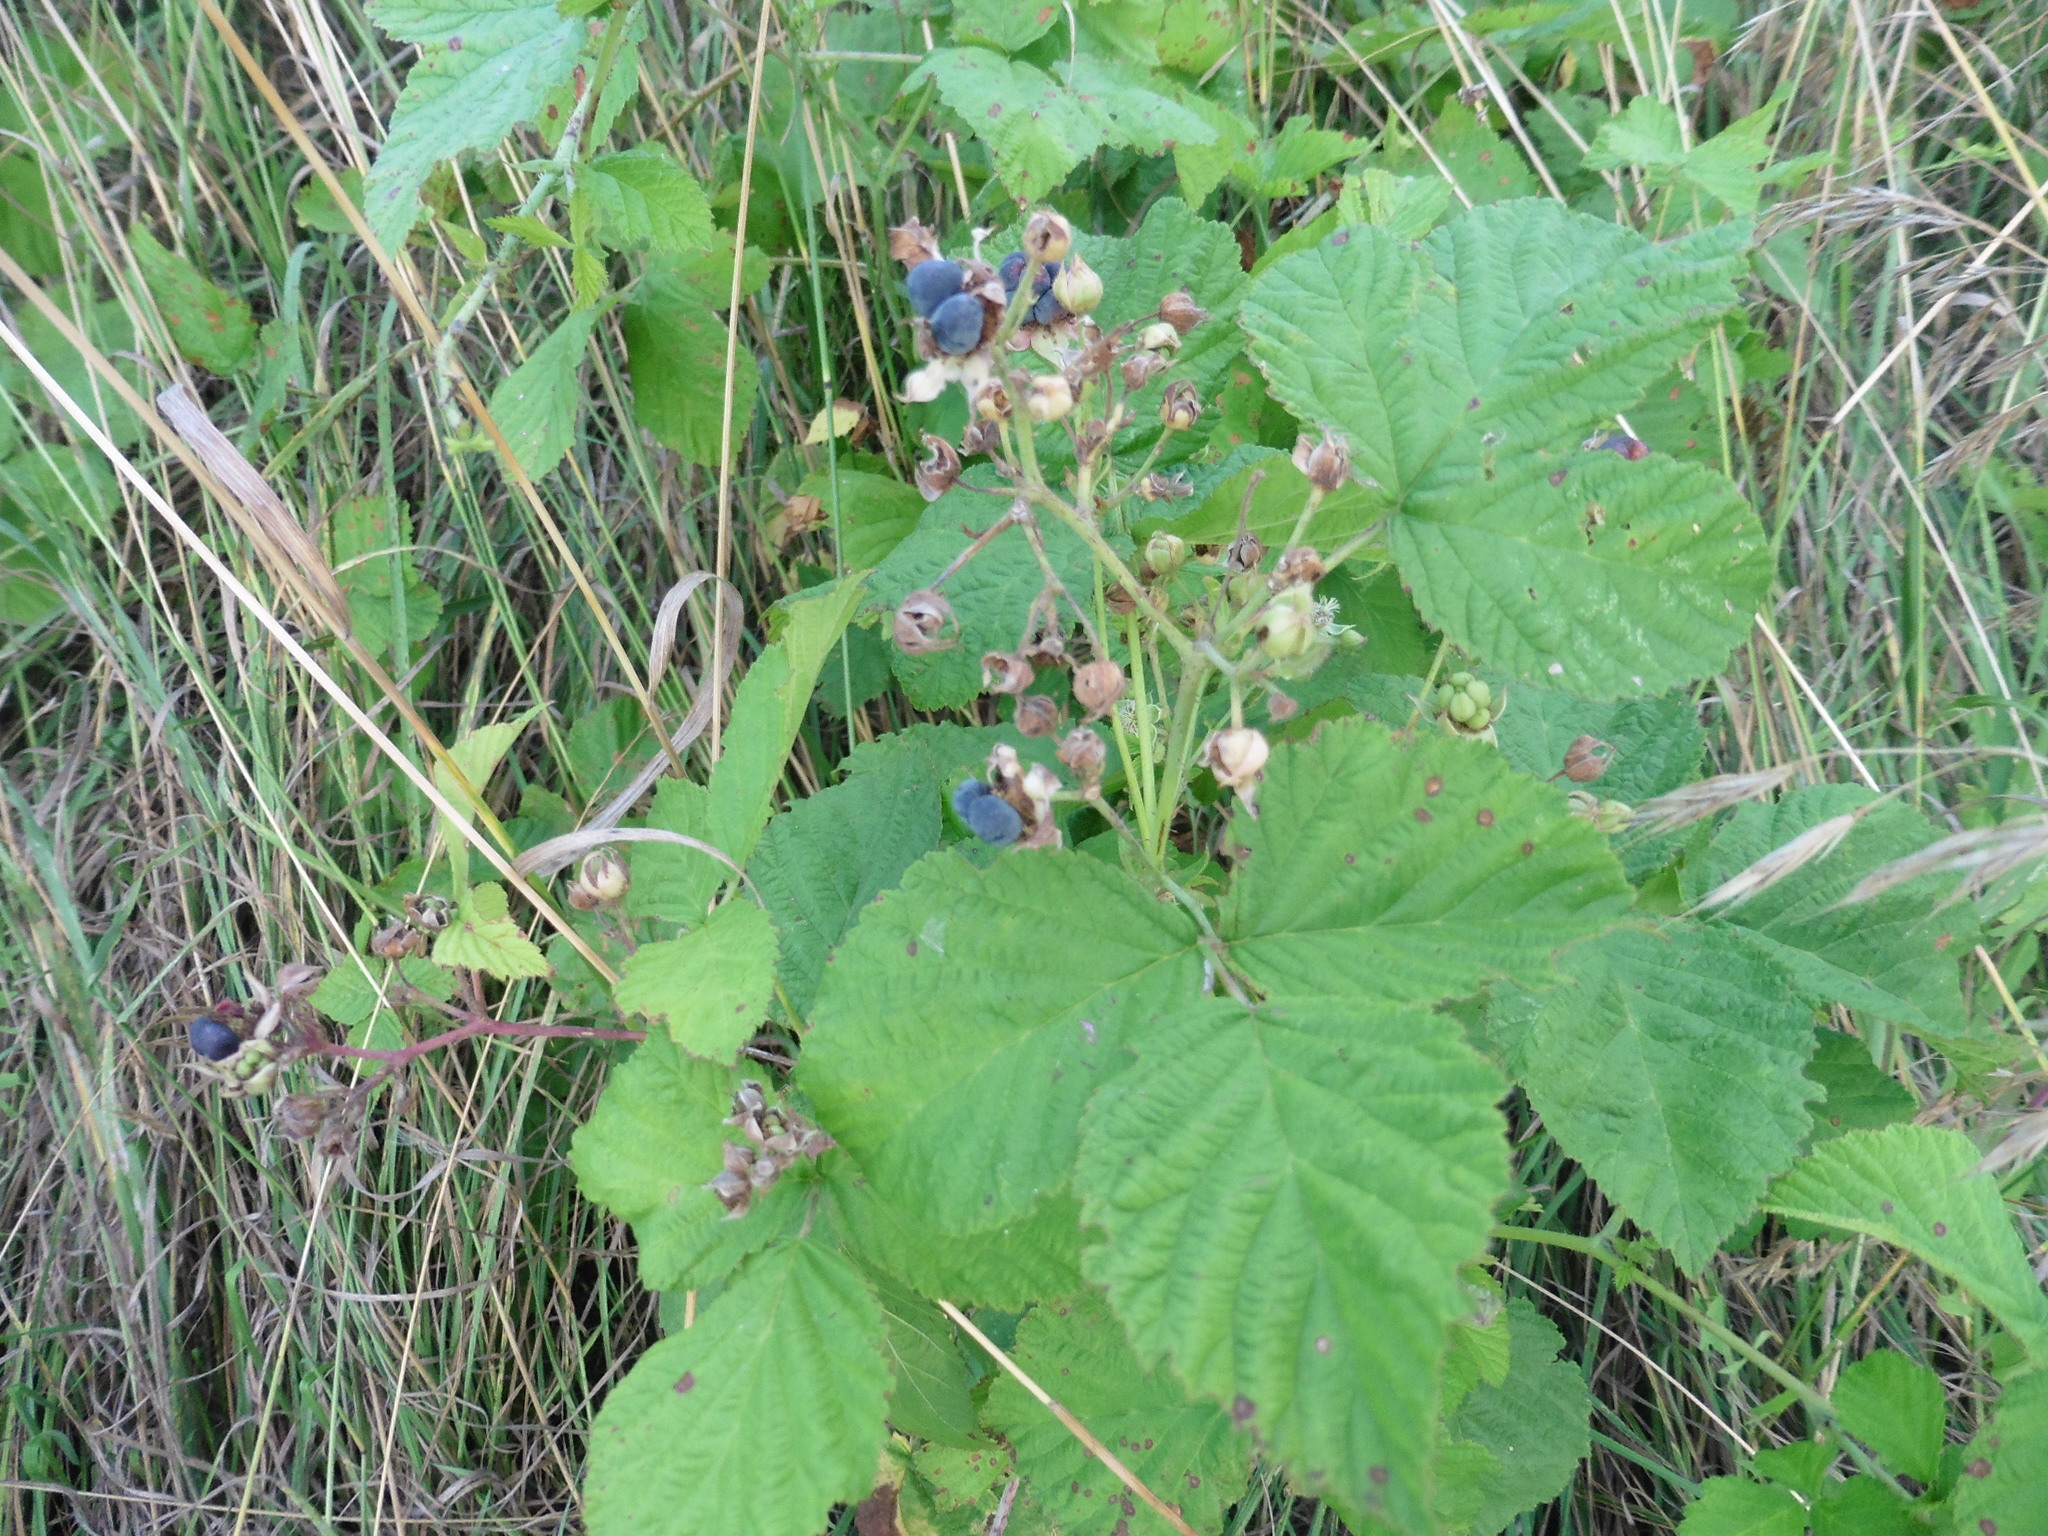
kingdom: Plantae
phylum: Tracheophyta
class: Magnoliopsida
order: Rosales
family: Rosaceae
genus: Rubus
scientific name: Rubus caesius
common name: Dewberry
